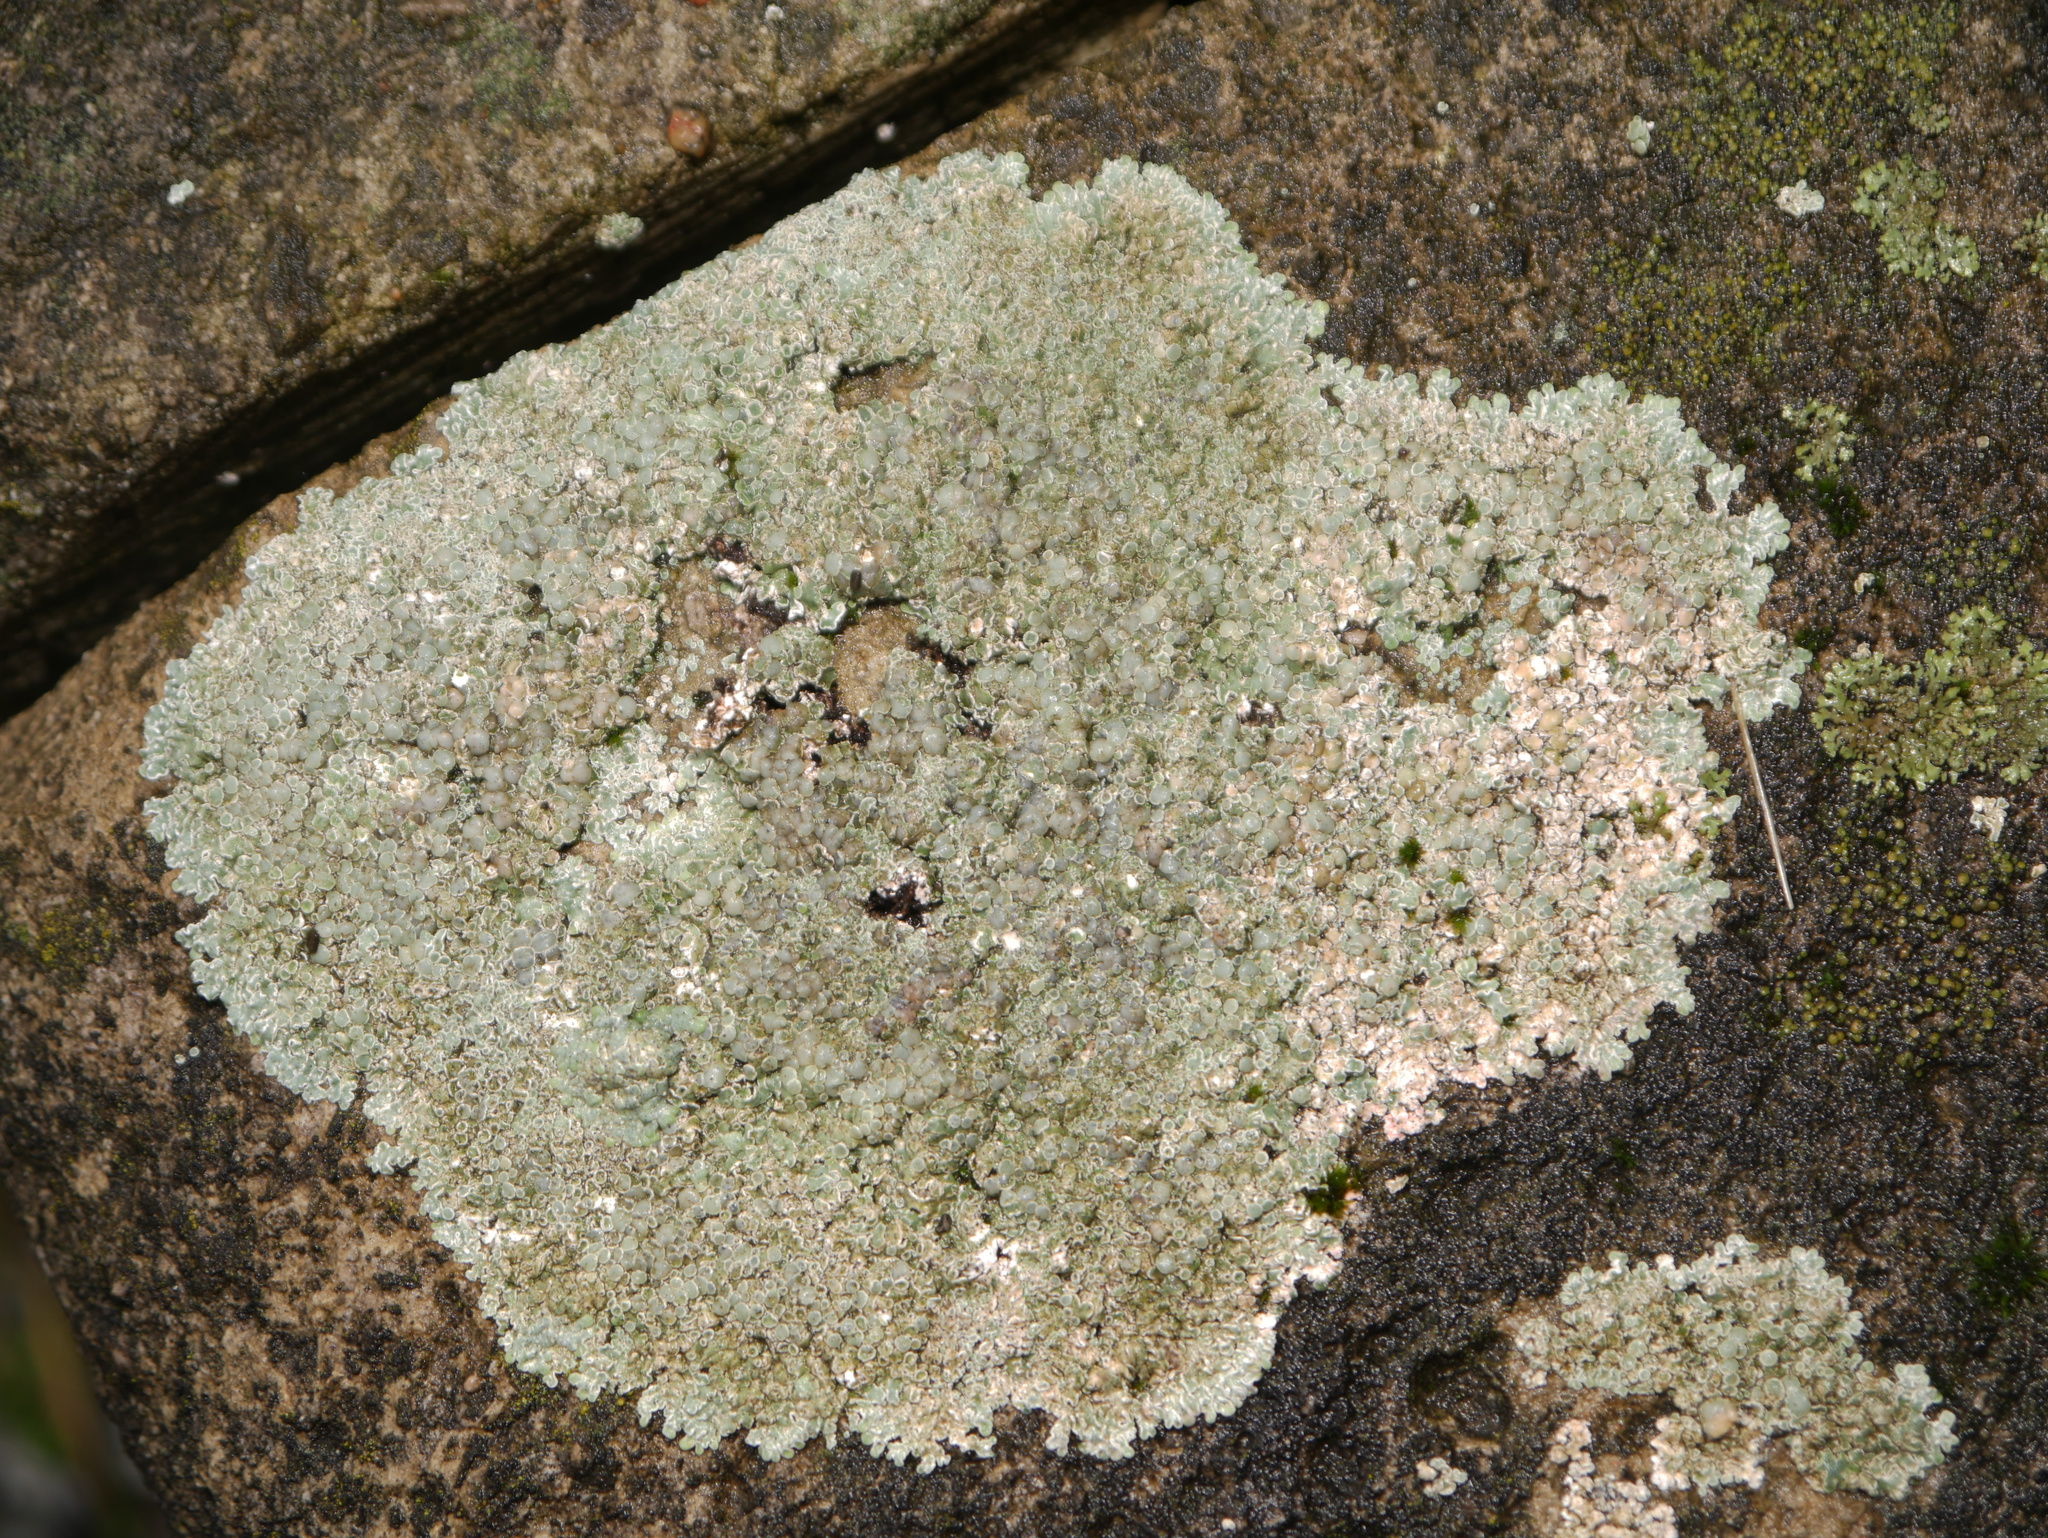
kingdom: Fungi
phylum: Ascomycota
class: Lecanoromycetes
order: Lecanorales
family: Lecanoraceae
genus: Protoparmeliopsis
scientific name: Protoparmeliopsis muralis
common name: Stonewall rim lichen
